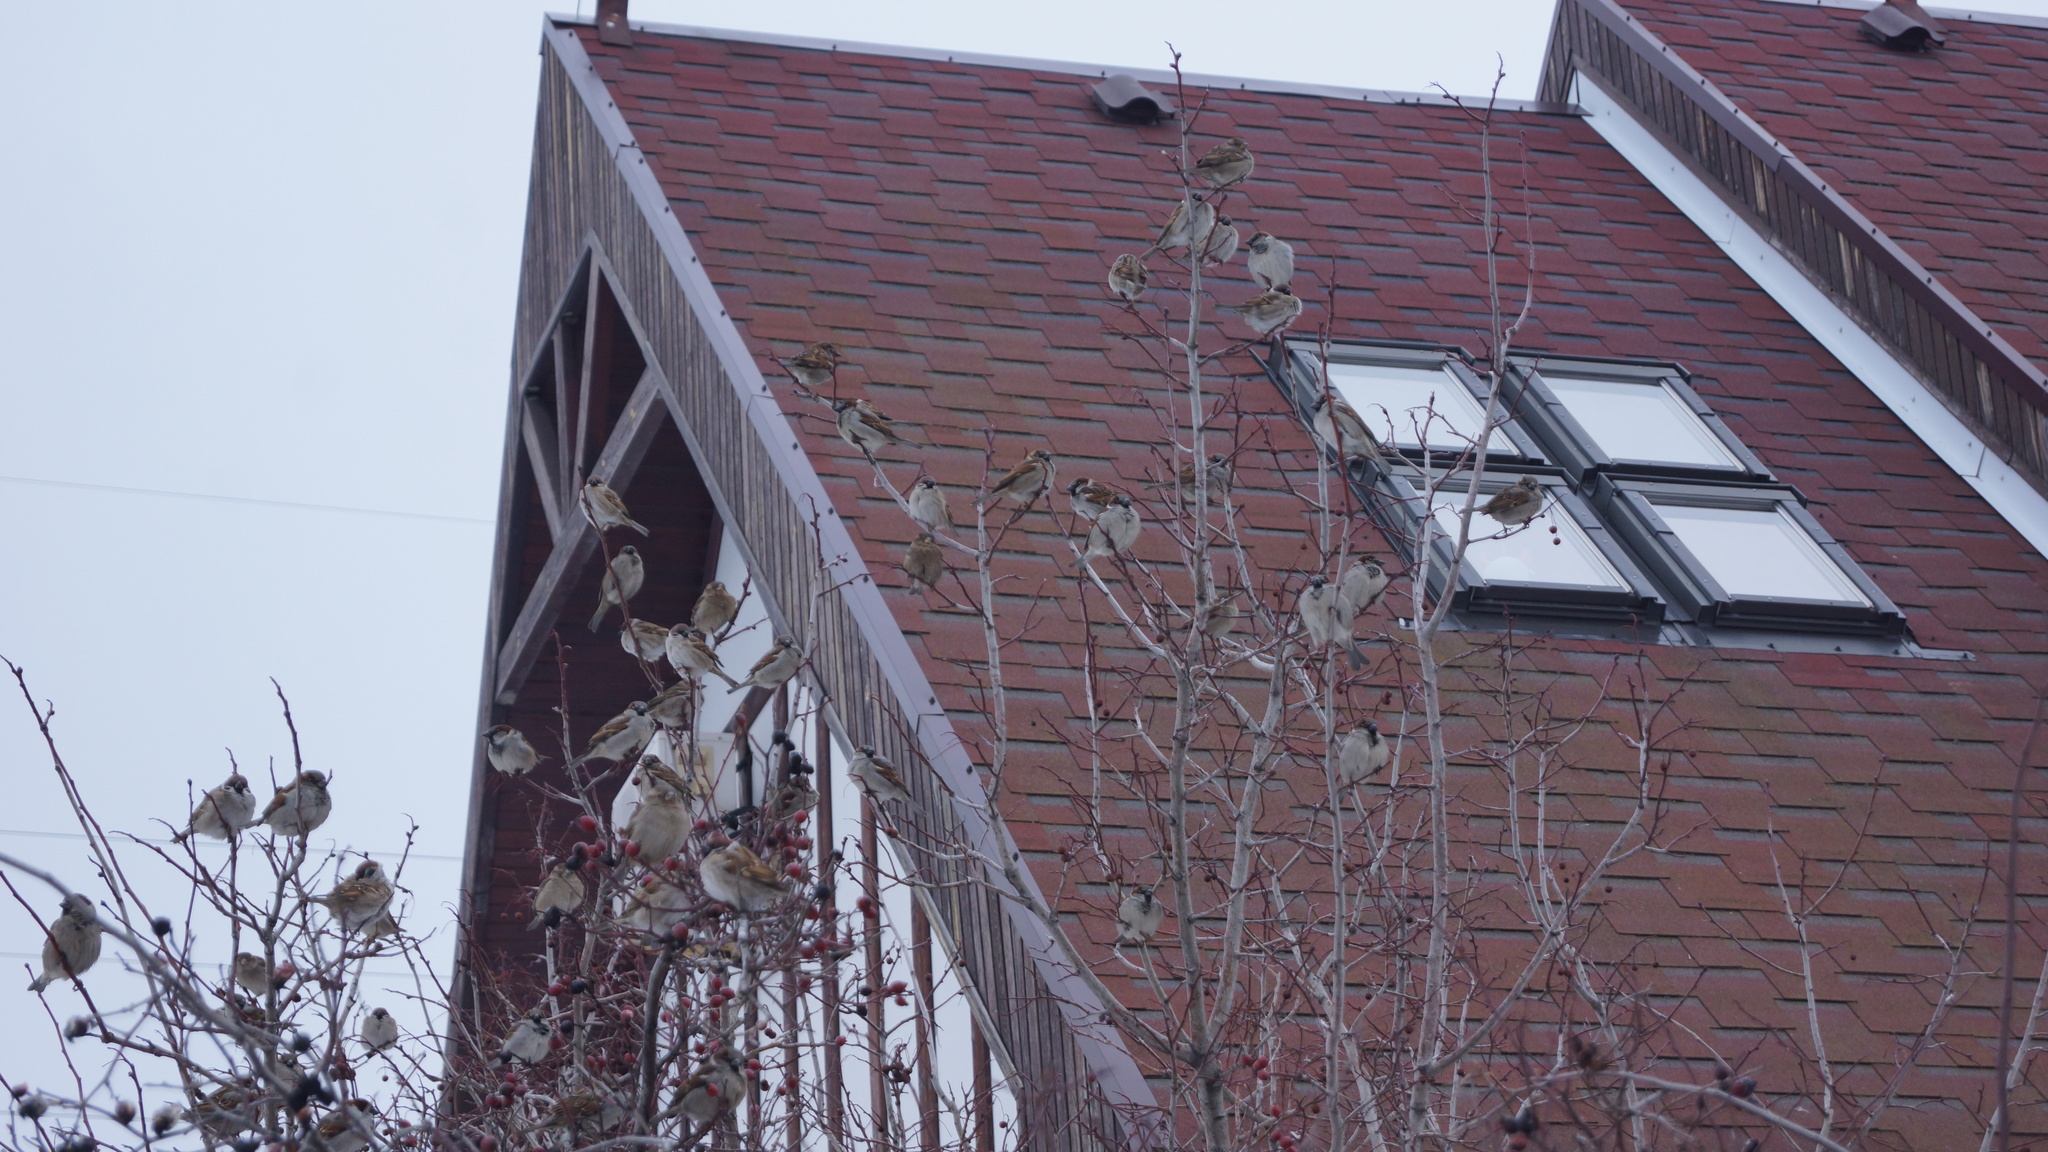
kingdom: Animalia
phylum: Chordata
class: Aves
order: Passeriformes
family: Passeridae
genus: Passer
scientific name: Passer montanus
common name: Eurasian tree sparrow
